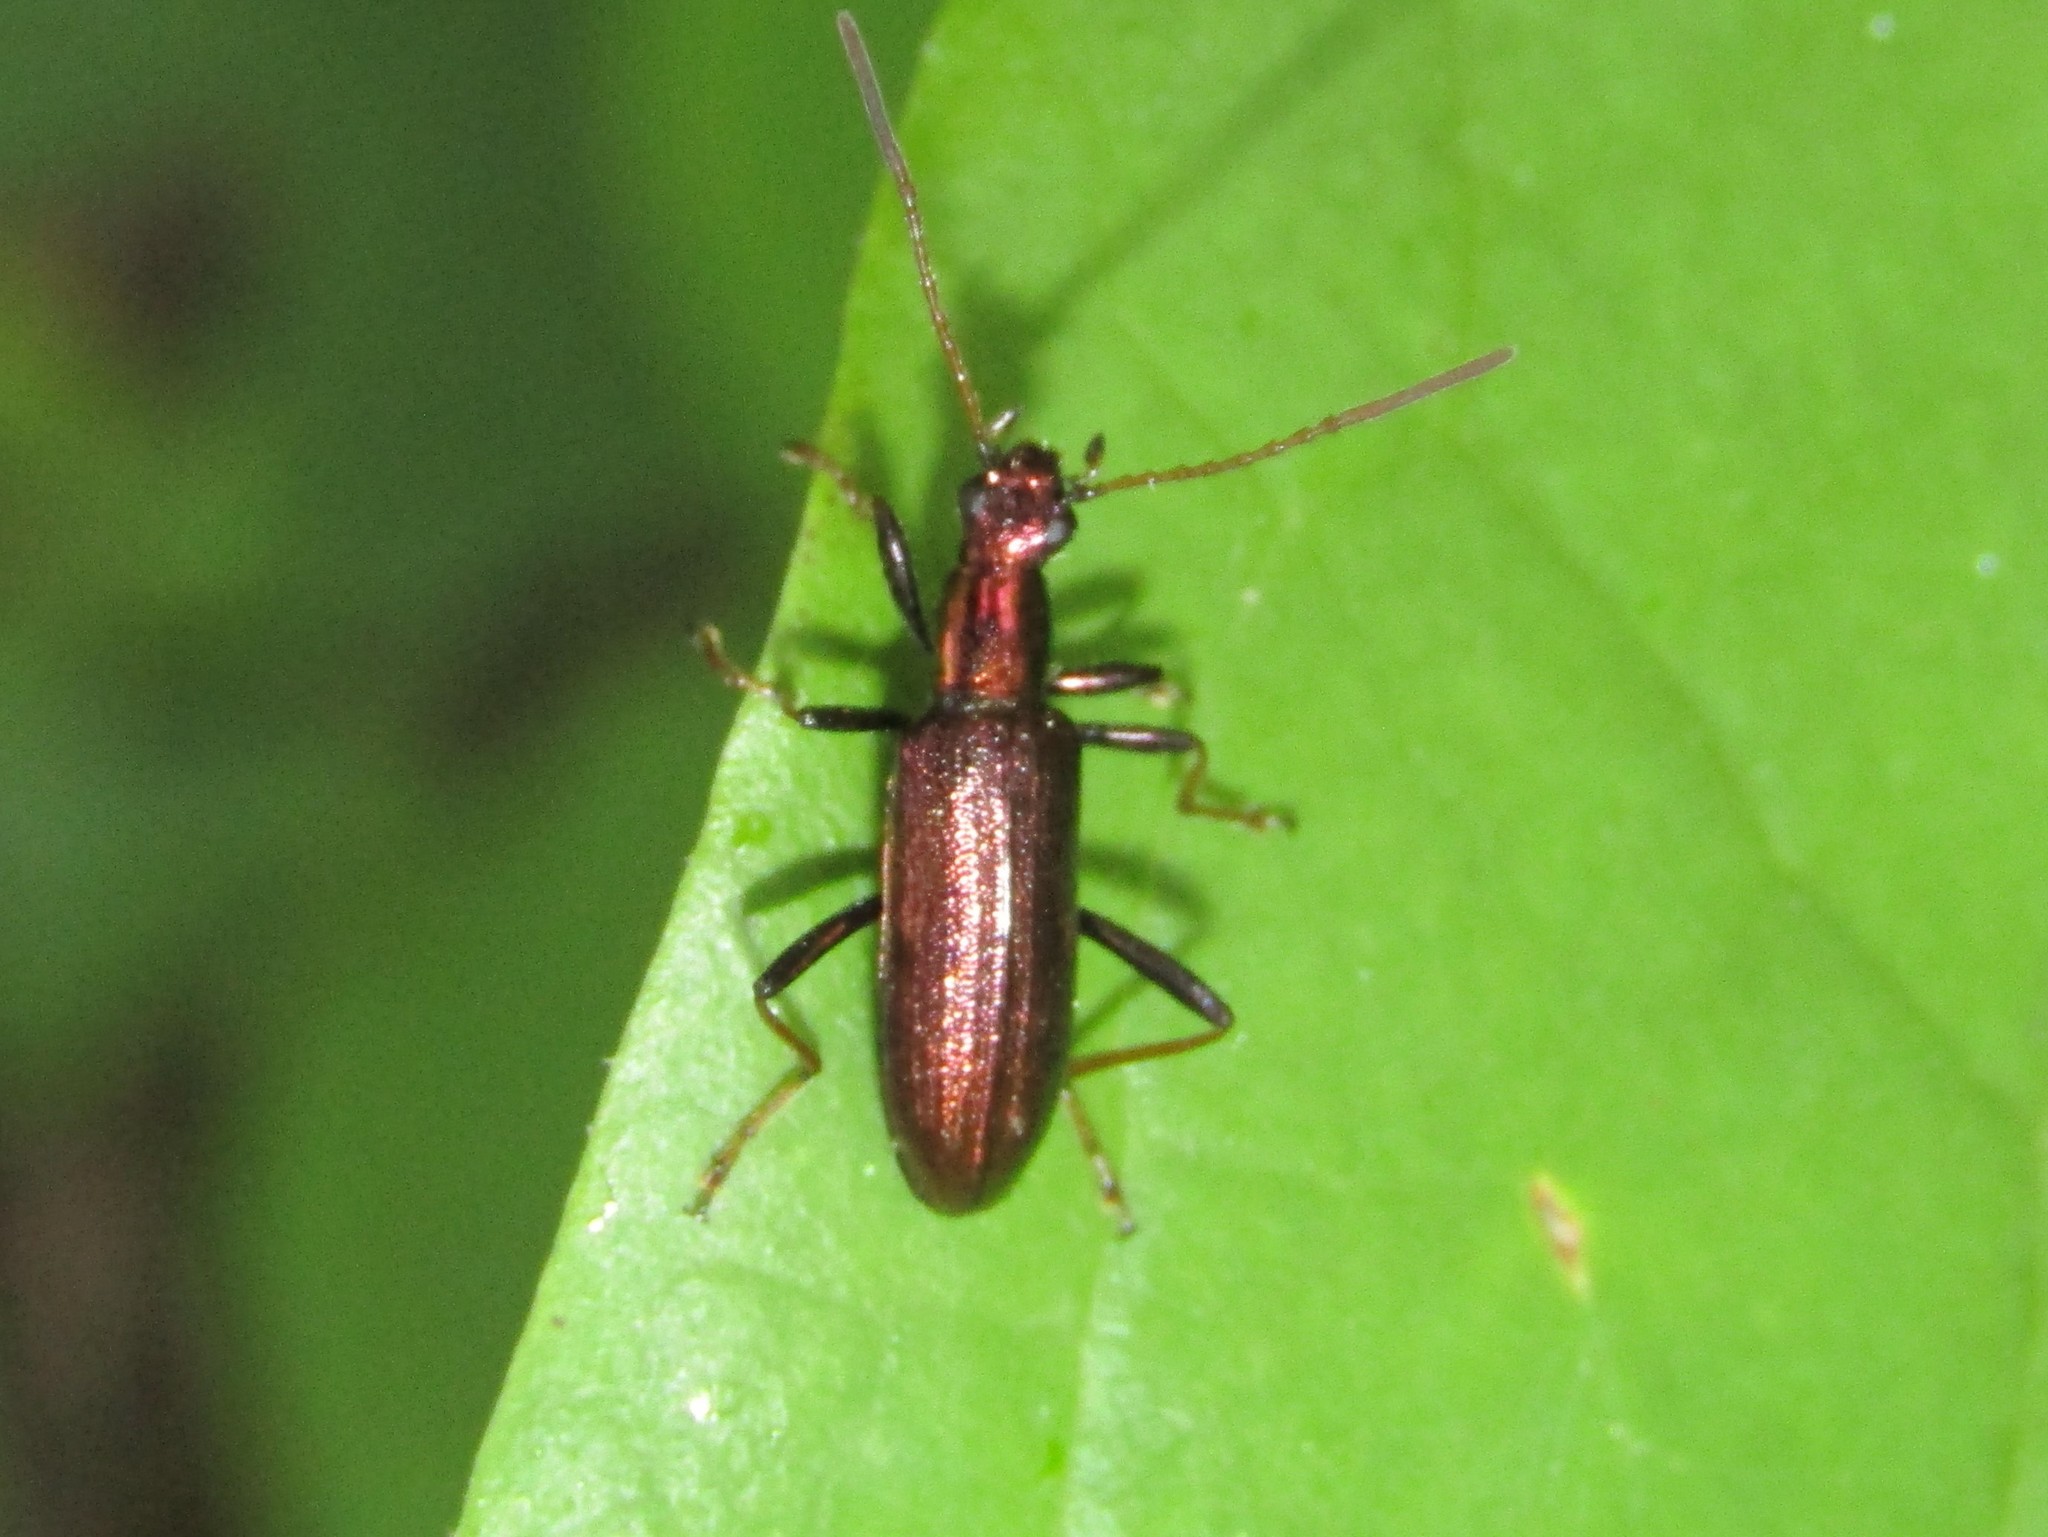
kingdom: Animalia
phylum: Arthropoda
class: Insecta
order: Coleoptera
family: Tenebrionidae
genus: Arthromacra
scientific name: Arthromacra robinsoni
